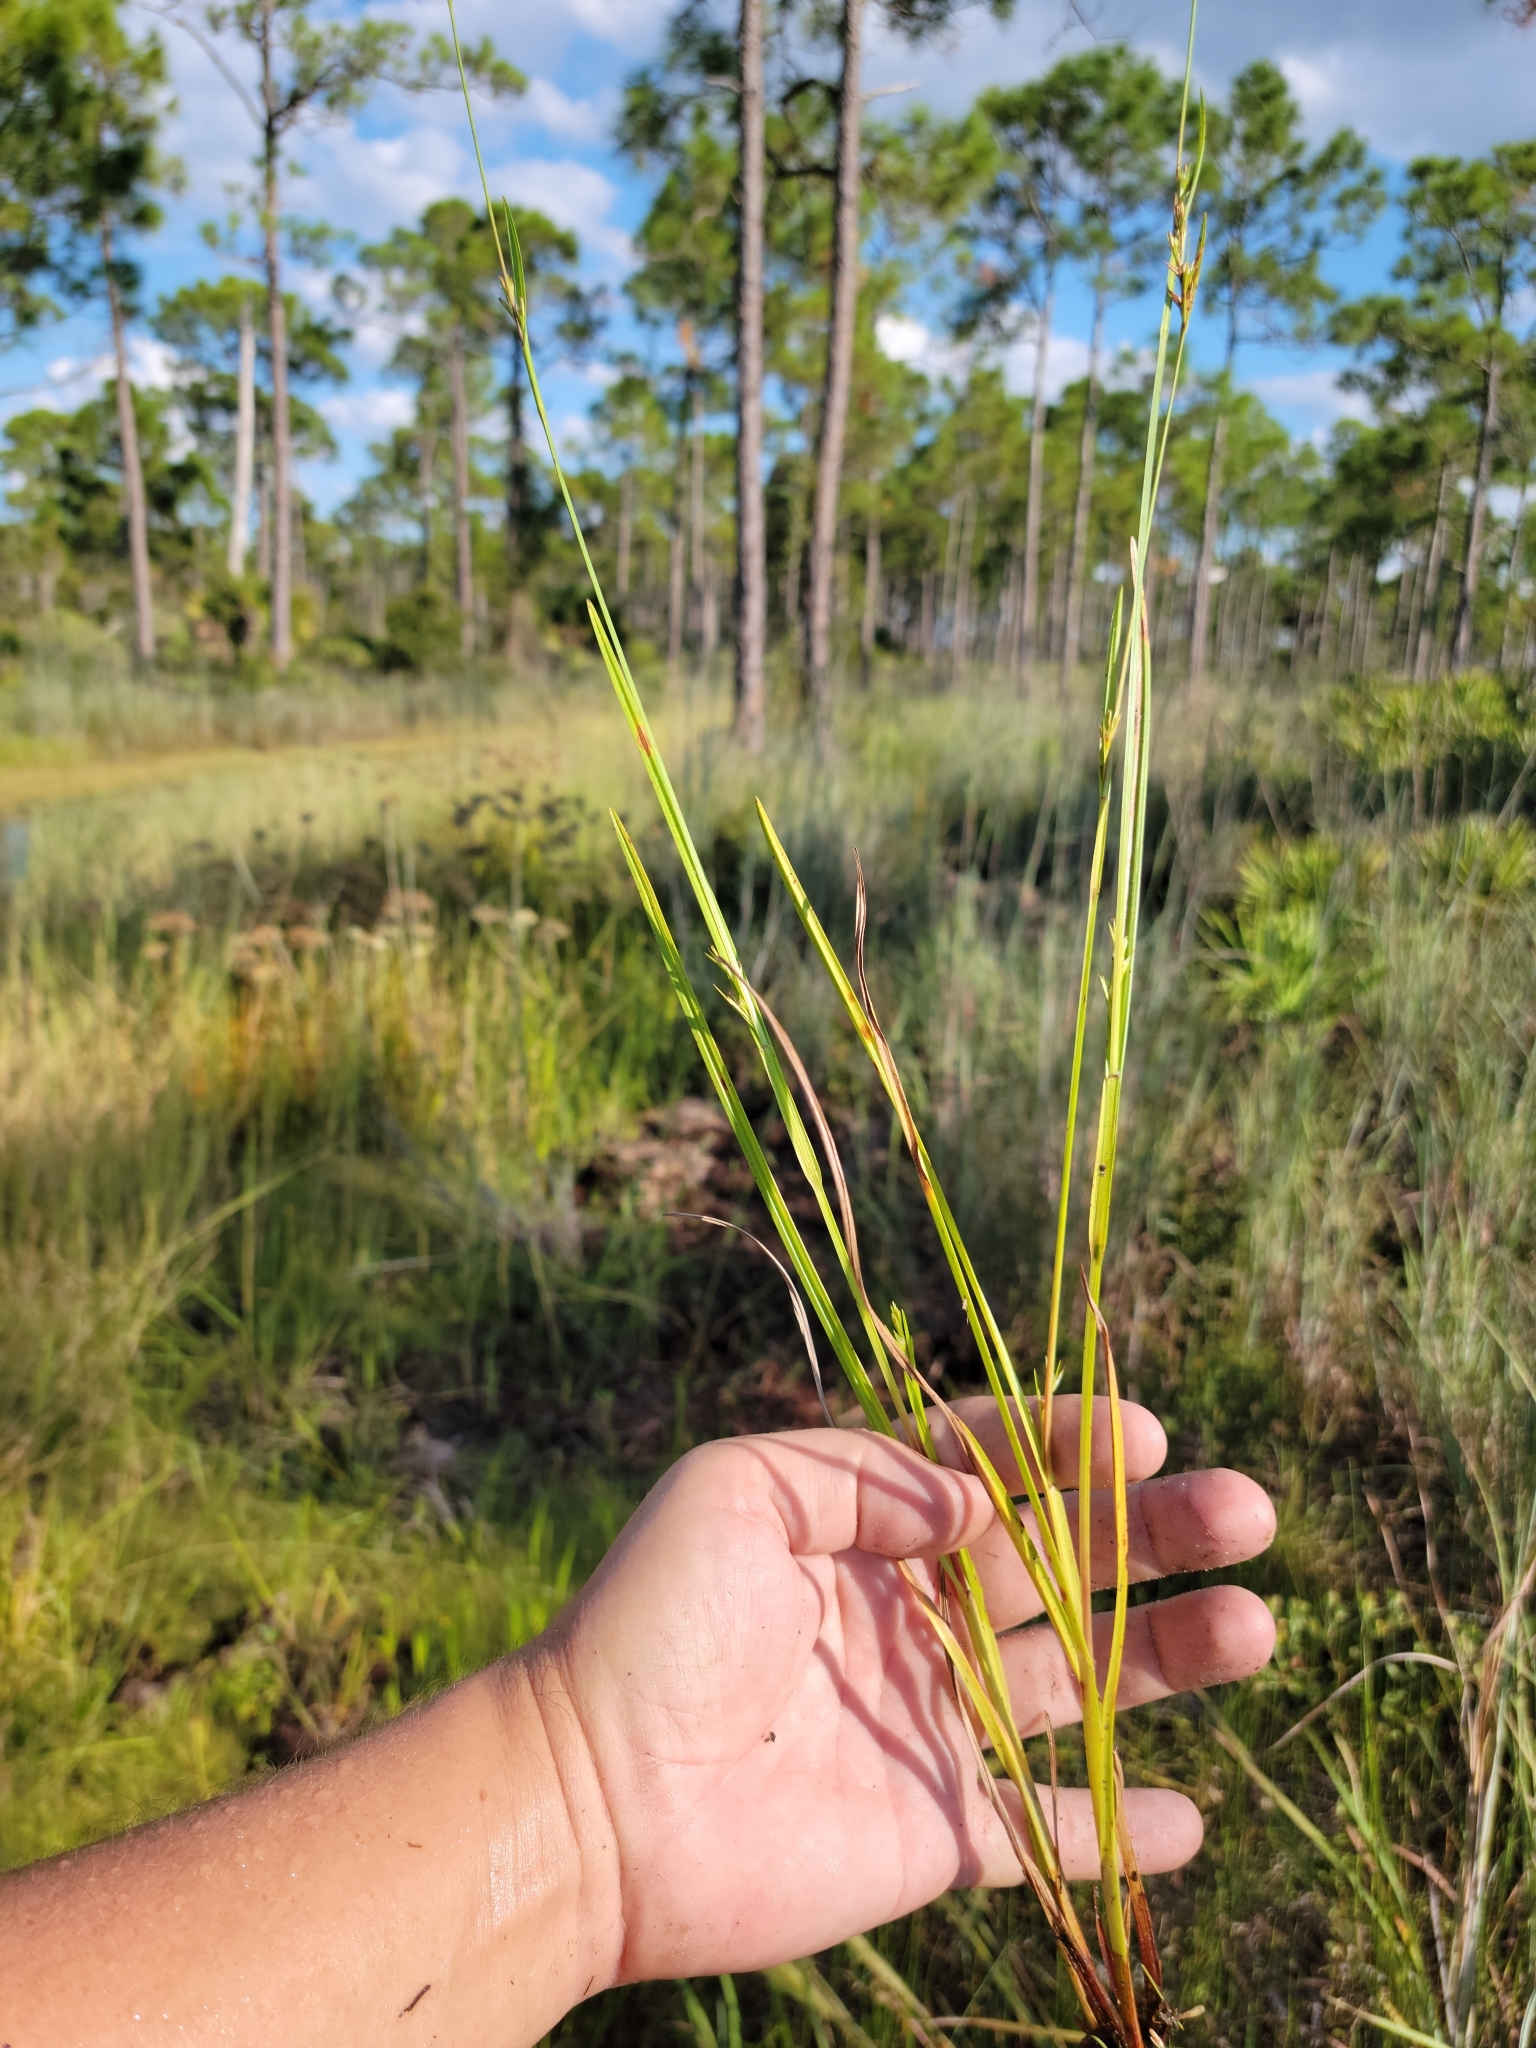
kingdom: Plantae
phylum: Tracheophyta
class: Liliopsida
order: Poales
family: Cyperaceae
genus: Scleria
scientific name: Scleria muehlenbergii
